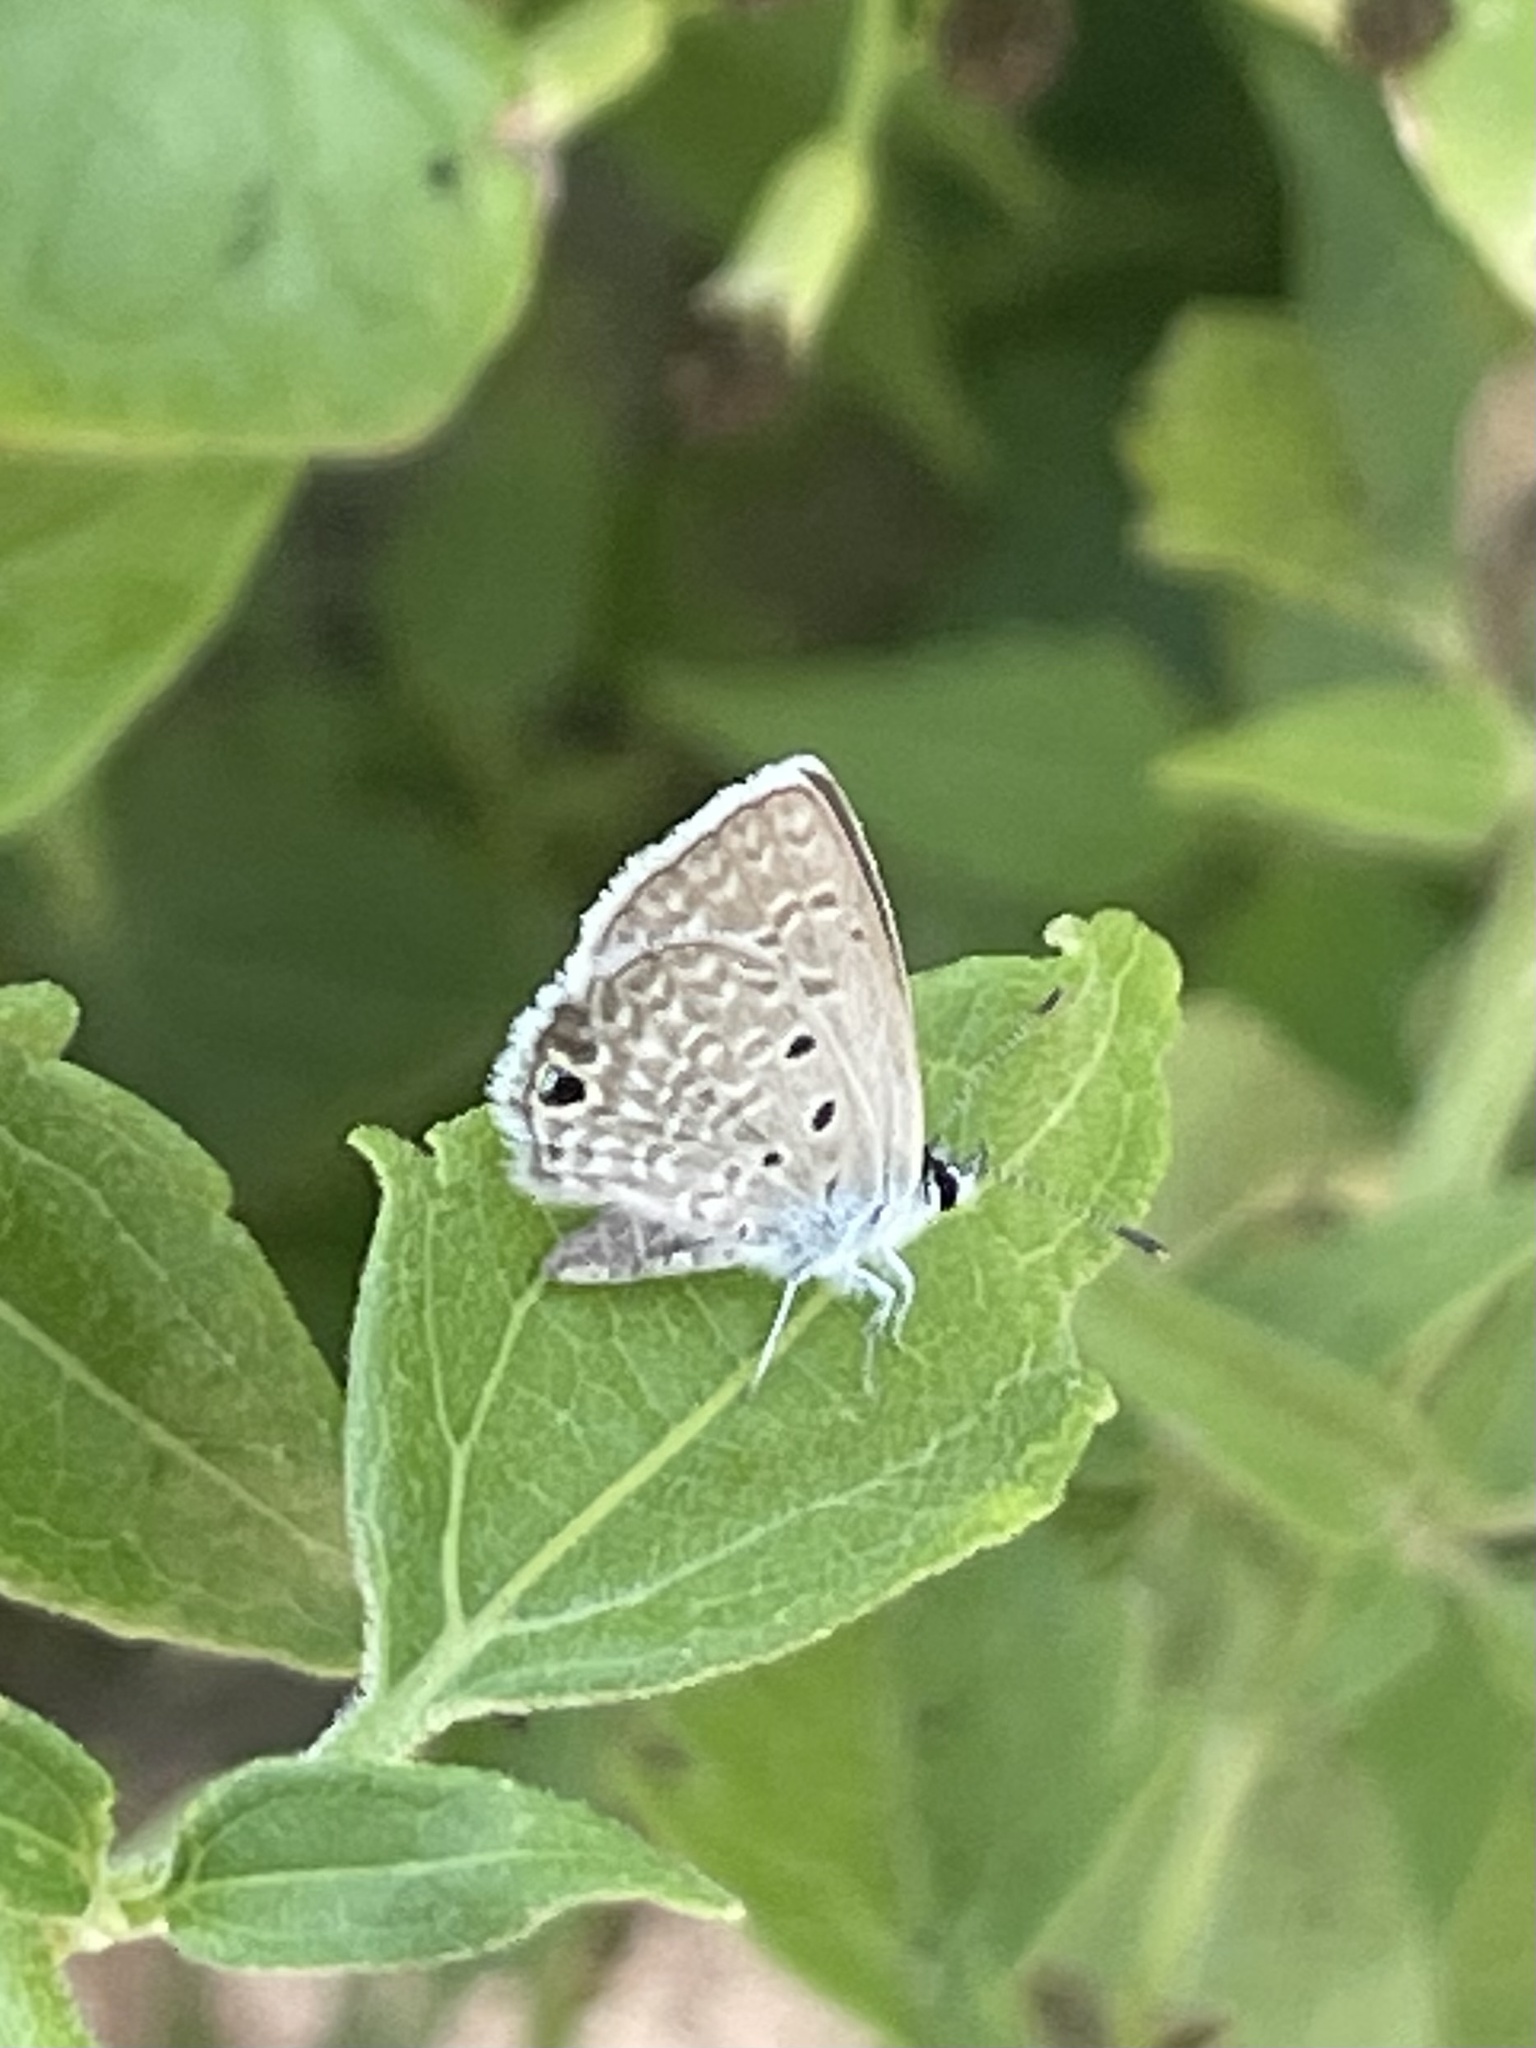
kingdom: Animalia
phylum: Arthropoda
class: Insecta
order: Lepidoptera
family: Lycaenidae
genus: Hemiargus
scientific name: Hemiargus ceraunus
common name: Ceraunus blue
